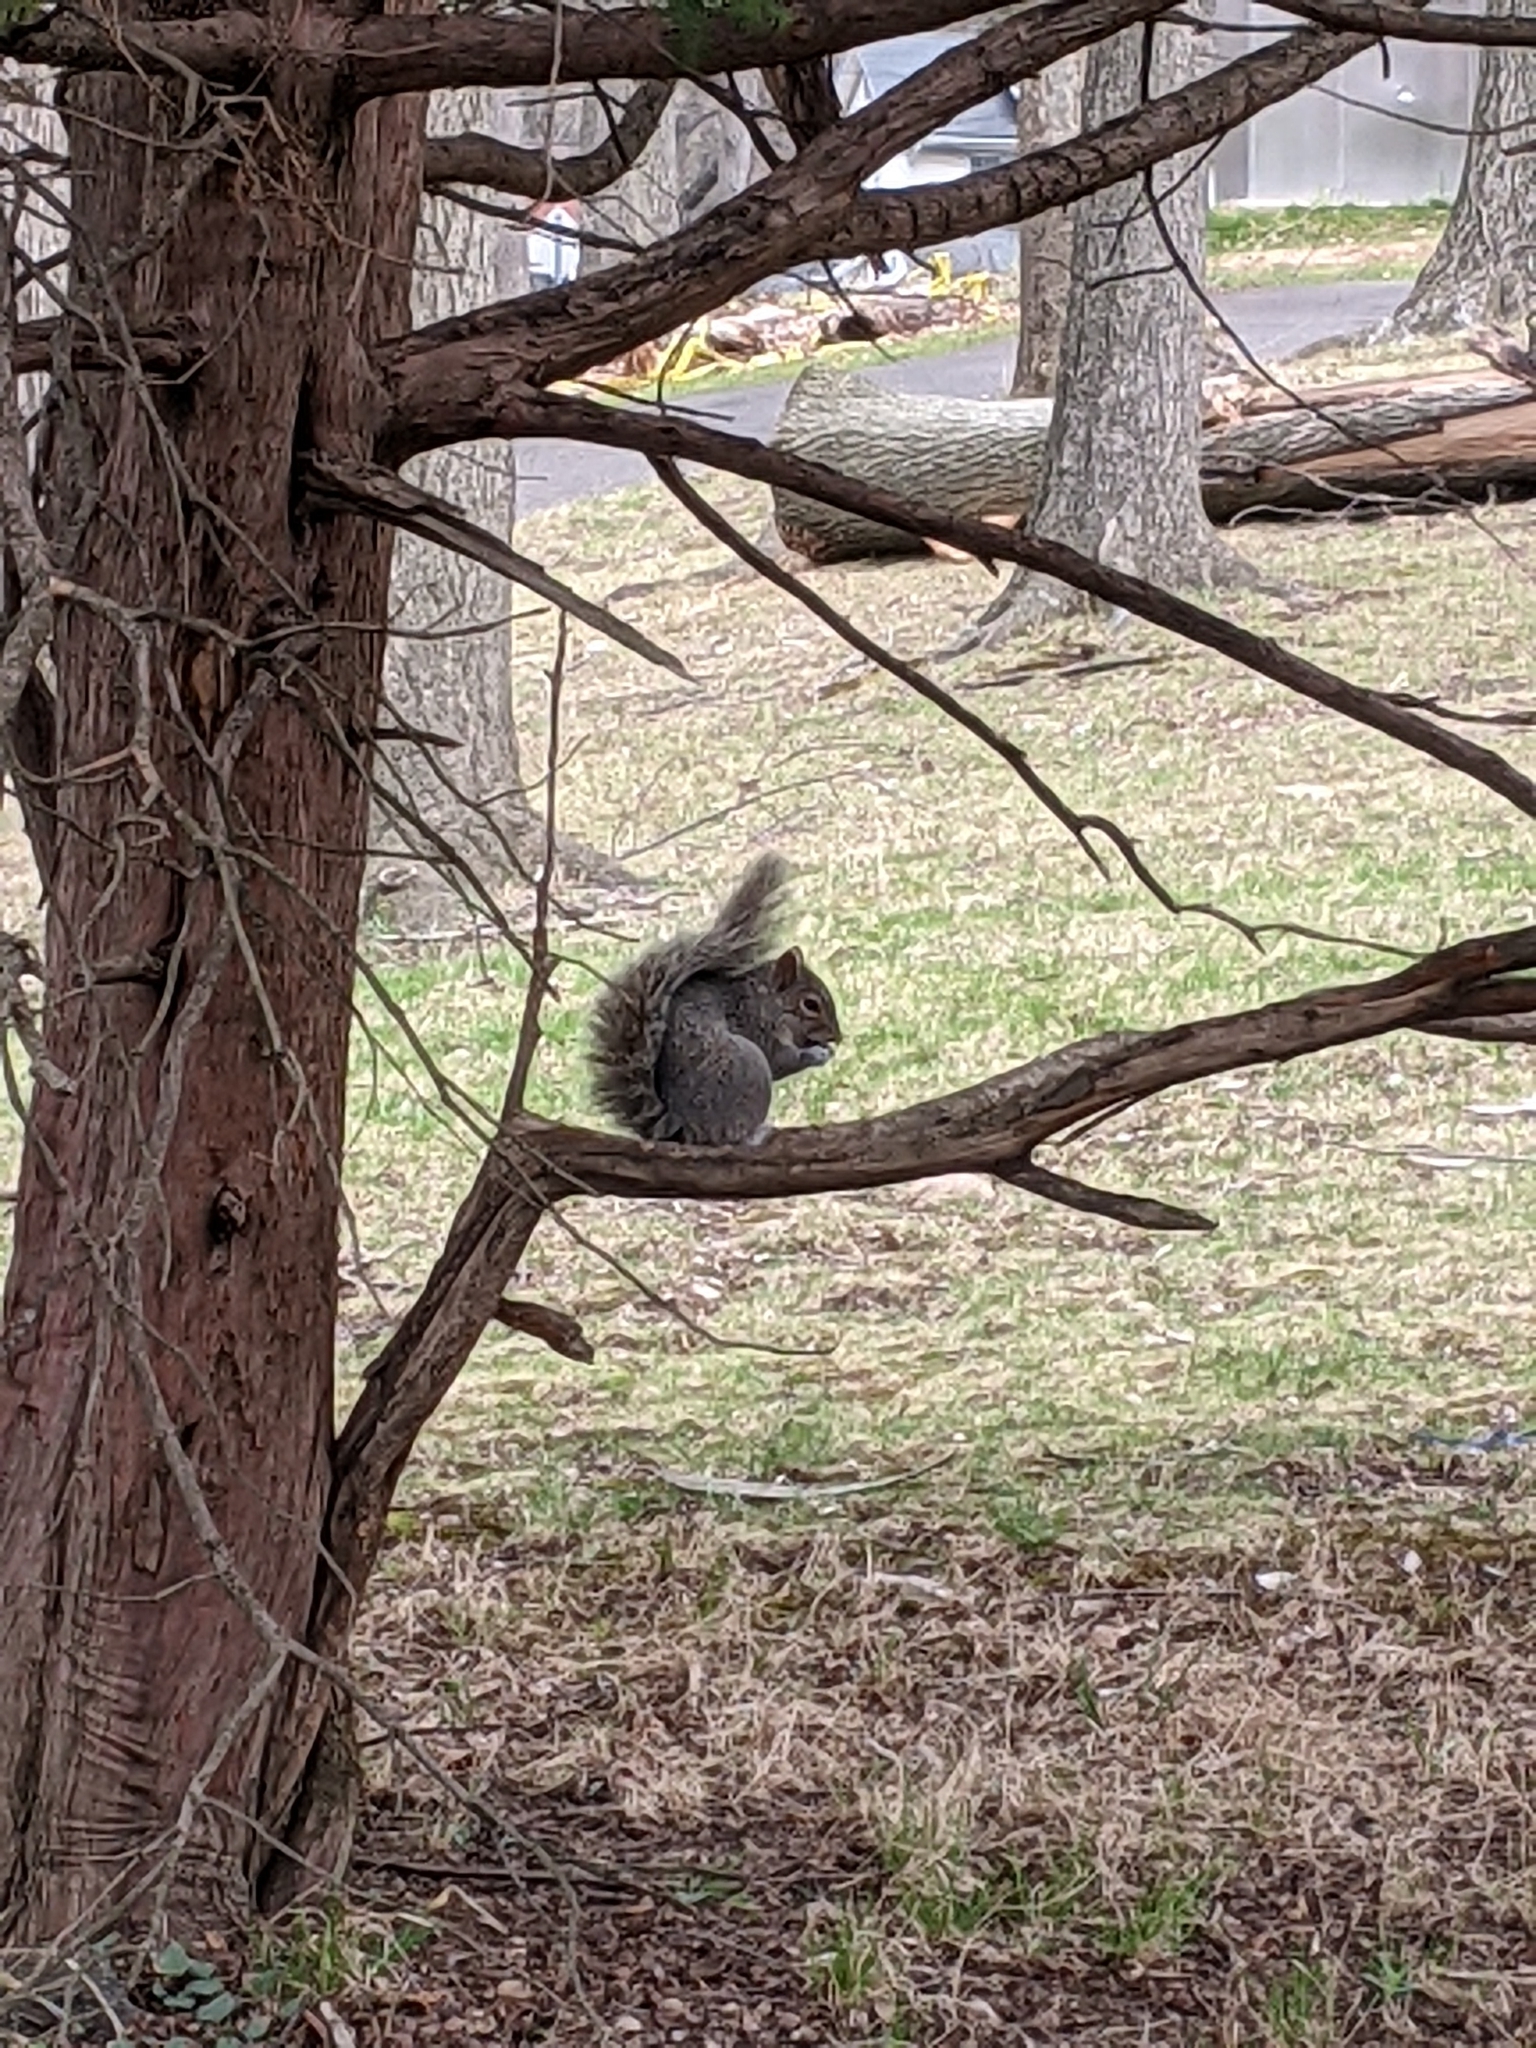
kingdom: Animalia
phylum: Chordata
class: Mammalia
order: Rodentia
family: Sciuridae
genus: Sciurus
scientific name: Sciurus carolinensis
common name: Eastern gray squirrel
